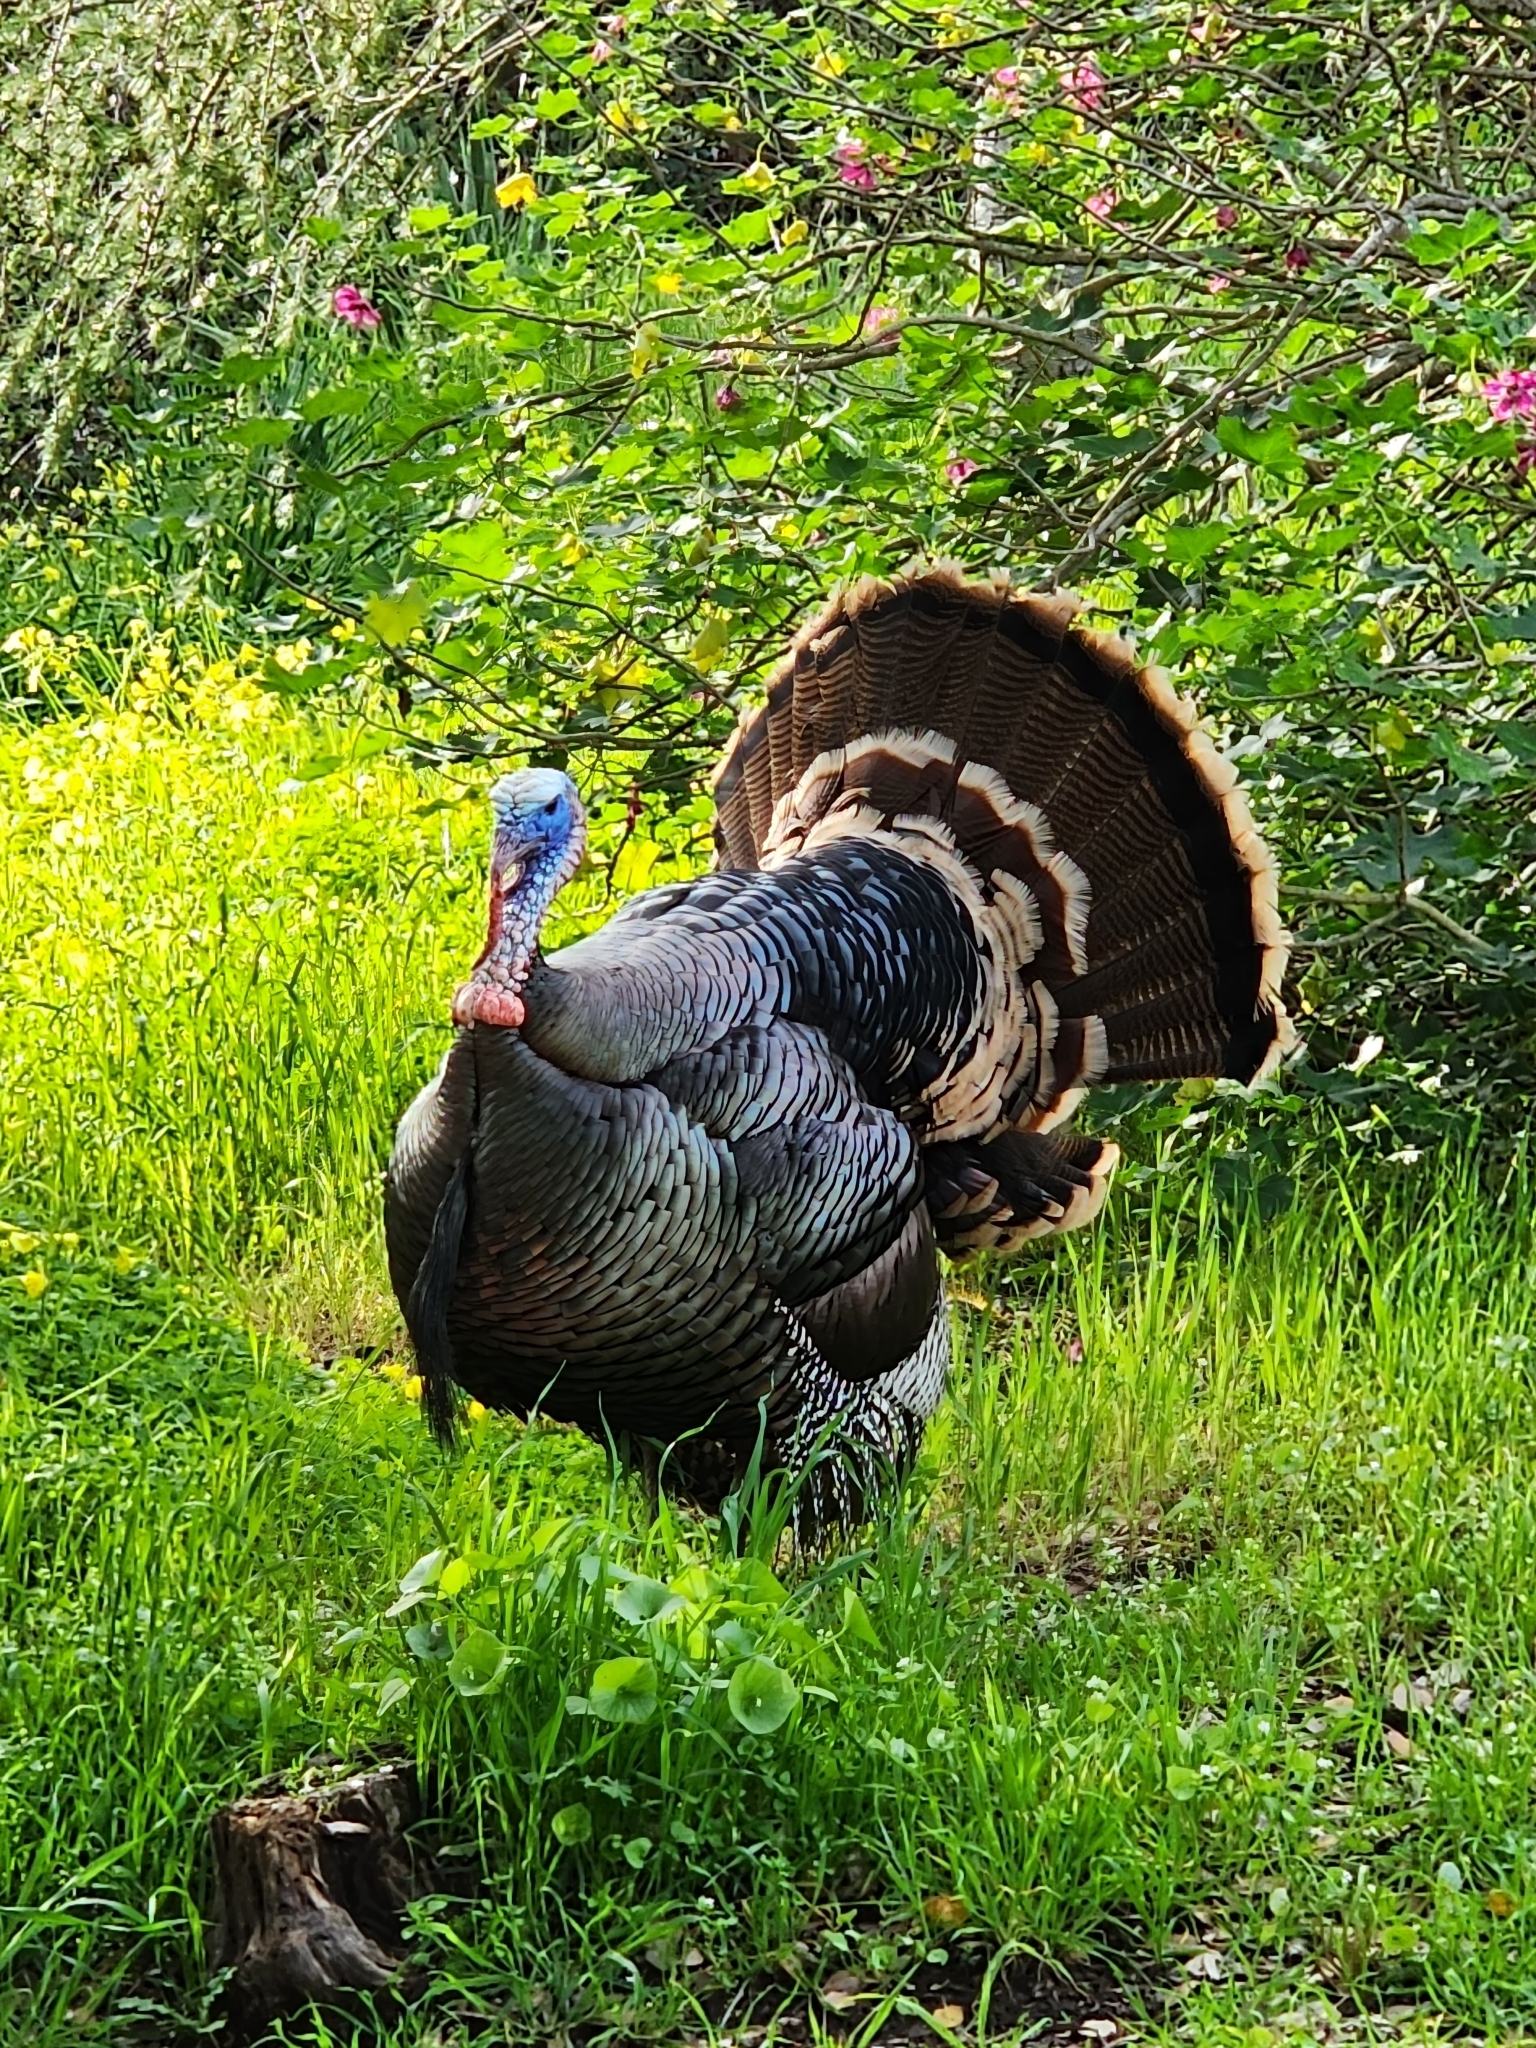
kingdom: Animalia
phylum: Chordata
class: Aves
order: Galliformes
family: Phasianidae
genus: Meleagris
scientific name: Meleagris gallopavo
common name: Wild turkey
